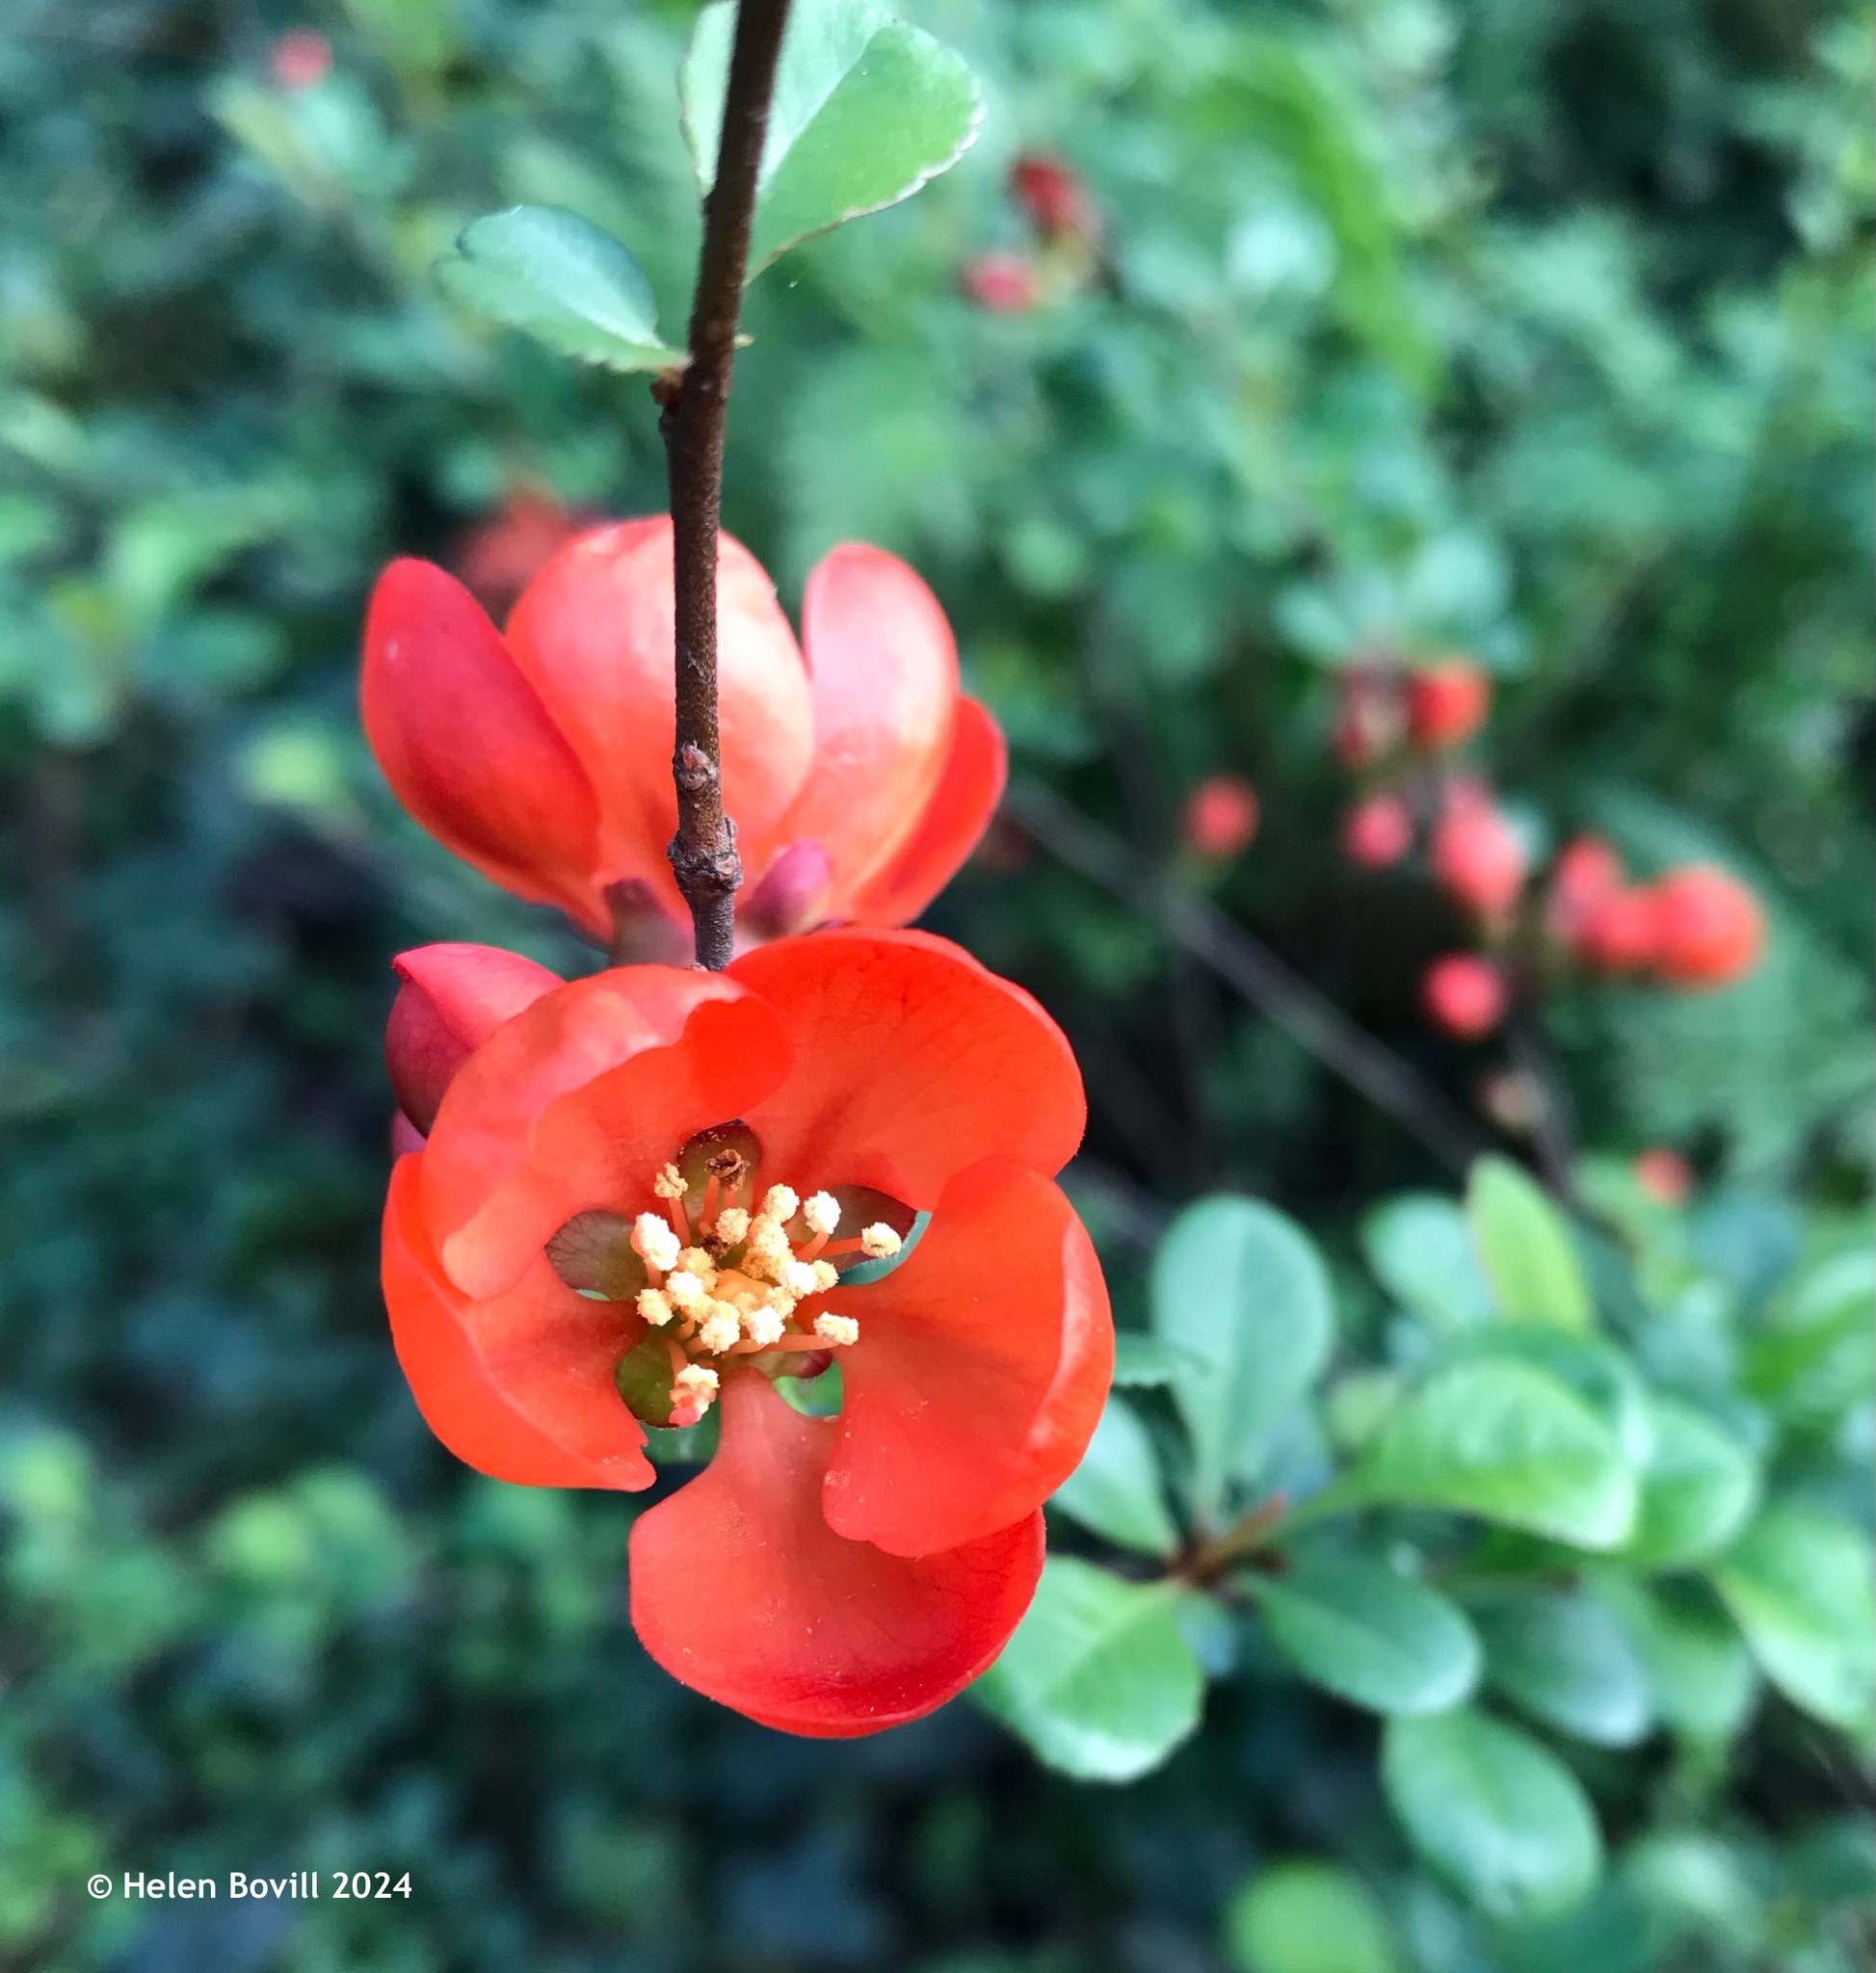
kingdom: Plantae
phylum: Tracheophyta
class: Magnoliopsida
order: Rosales
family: Rosaceae
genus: Chaenomeles
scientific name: Chaenomeles japonica
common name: Japanese quince
